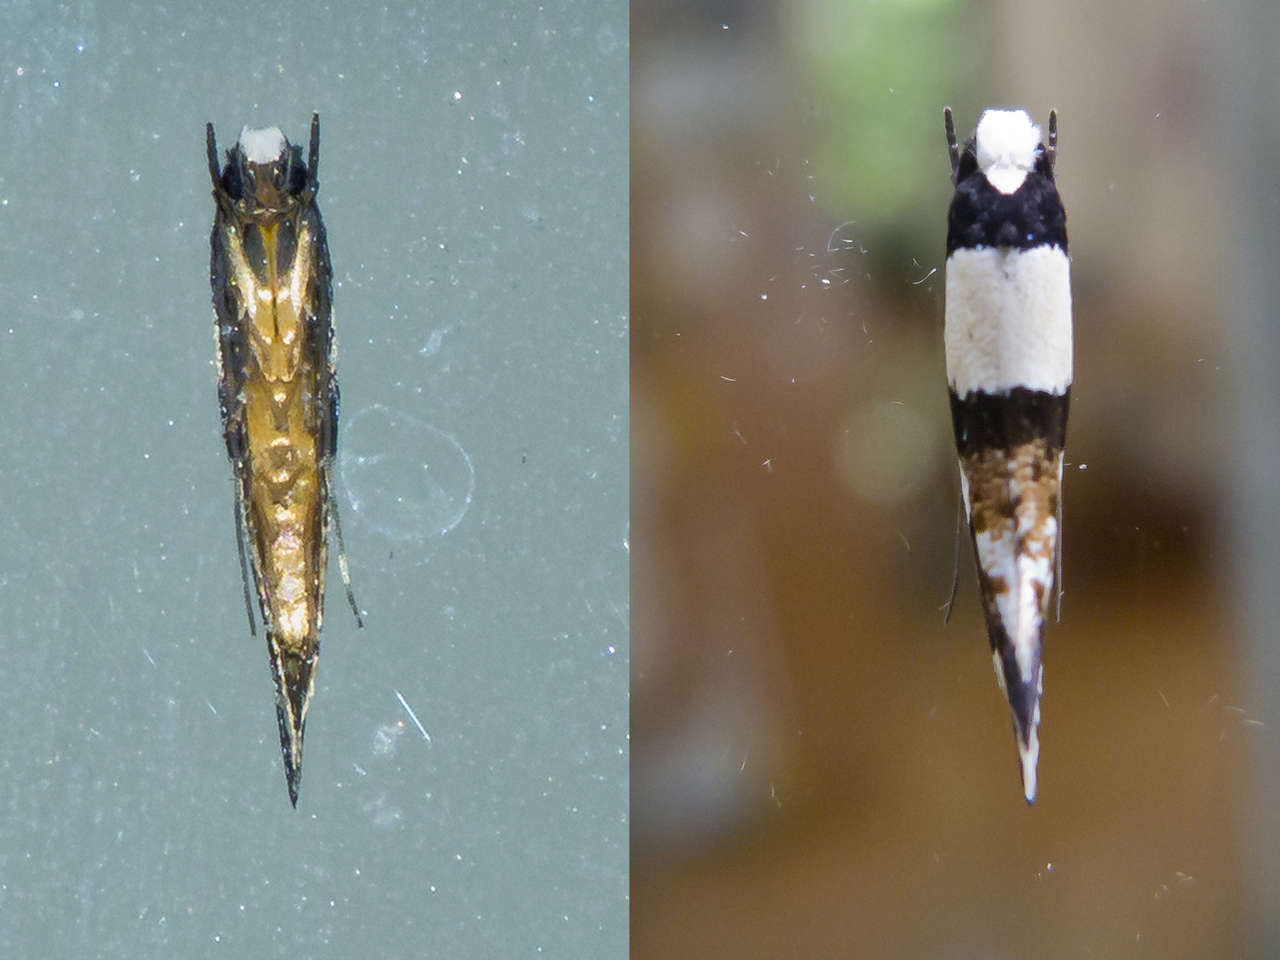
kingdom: Animalia
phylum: Arthropoda
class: Insecta
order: Lepidoptera
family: Tineidae
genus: Monopis
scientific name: Monopis icterogastra
